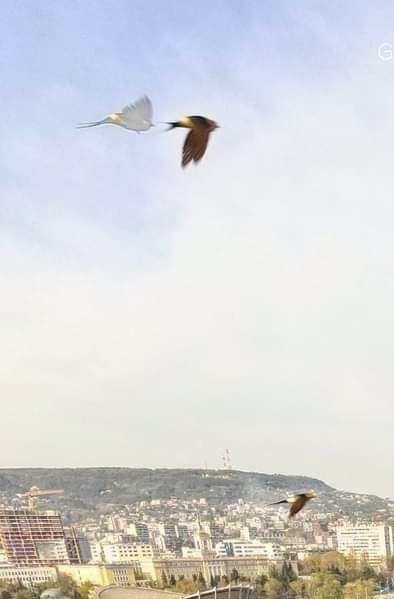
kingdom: Animalia
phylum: Chordata
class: Aves
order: Passeriformes
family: Hirundinidae
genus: Cecropis
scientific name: Cecropis daurica
